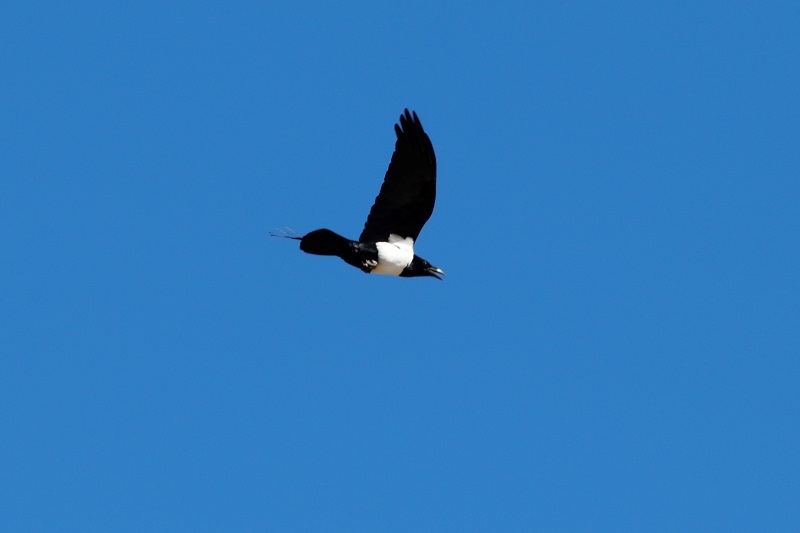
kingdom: Animalia
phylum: Chordata
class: Aves
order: Passeriformes
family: Corvidae
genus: Corvus
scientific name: Corvus albus
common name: Pied crow
